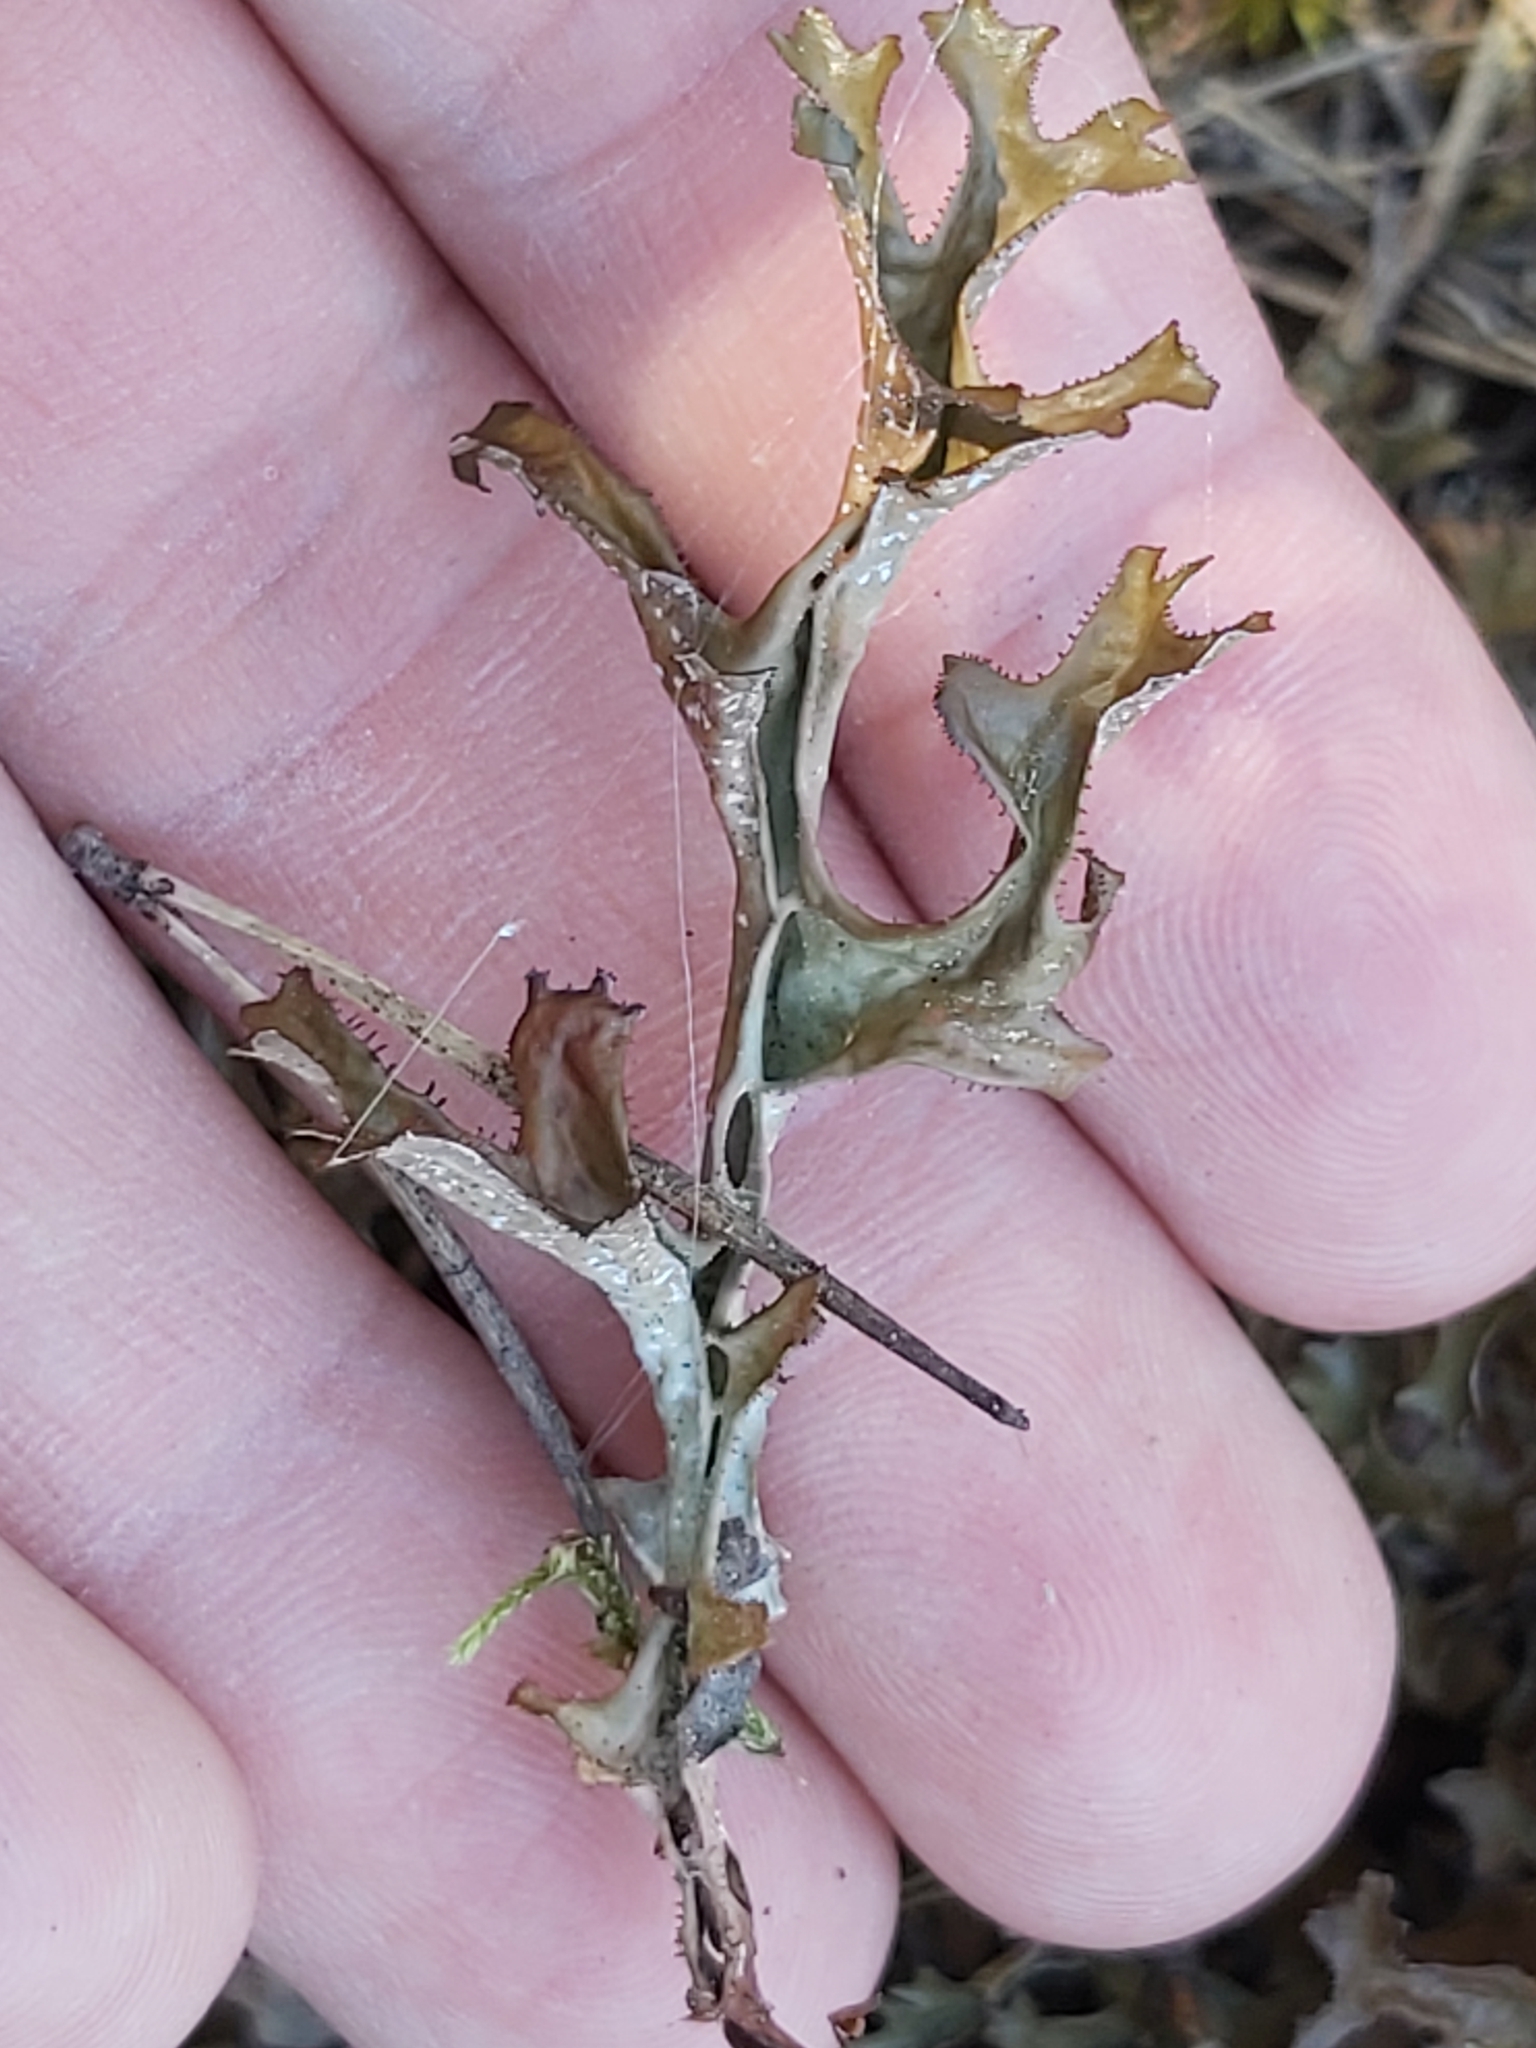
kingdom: Fungi
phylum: Ascomycota
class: Lecanoromycetes
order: Lecanorales
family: Parmeliaceae
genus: Cetraria
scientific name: Cetraria islandica
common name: Iceland lichen
